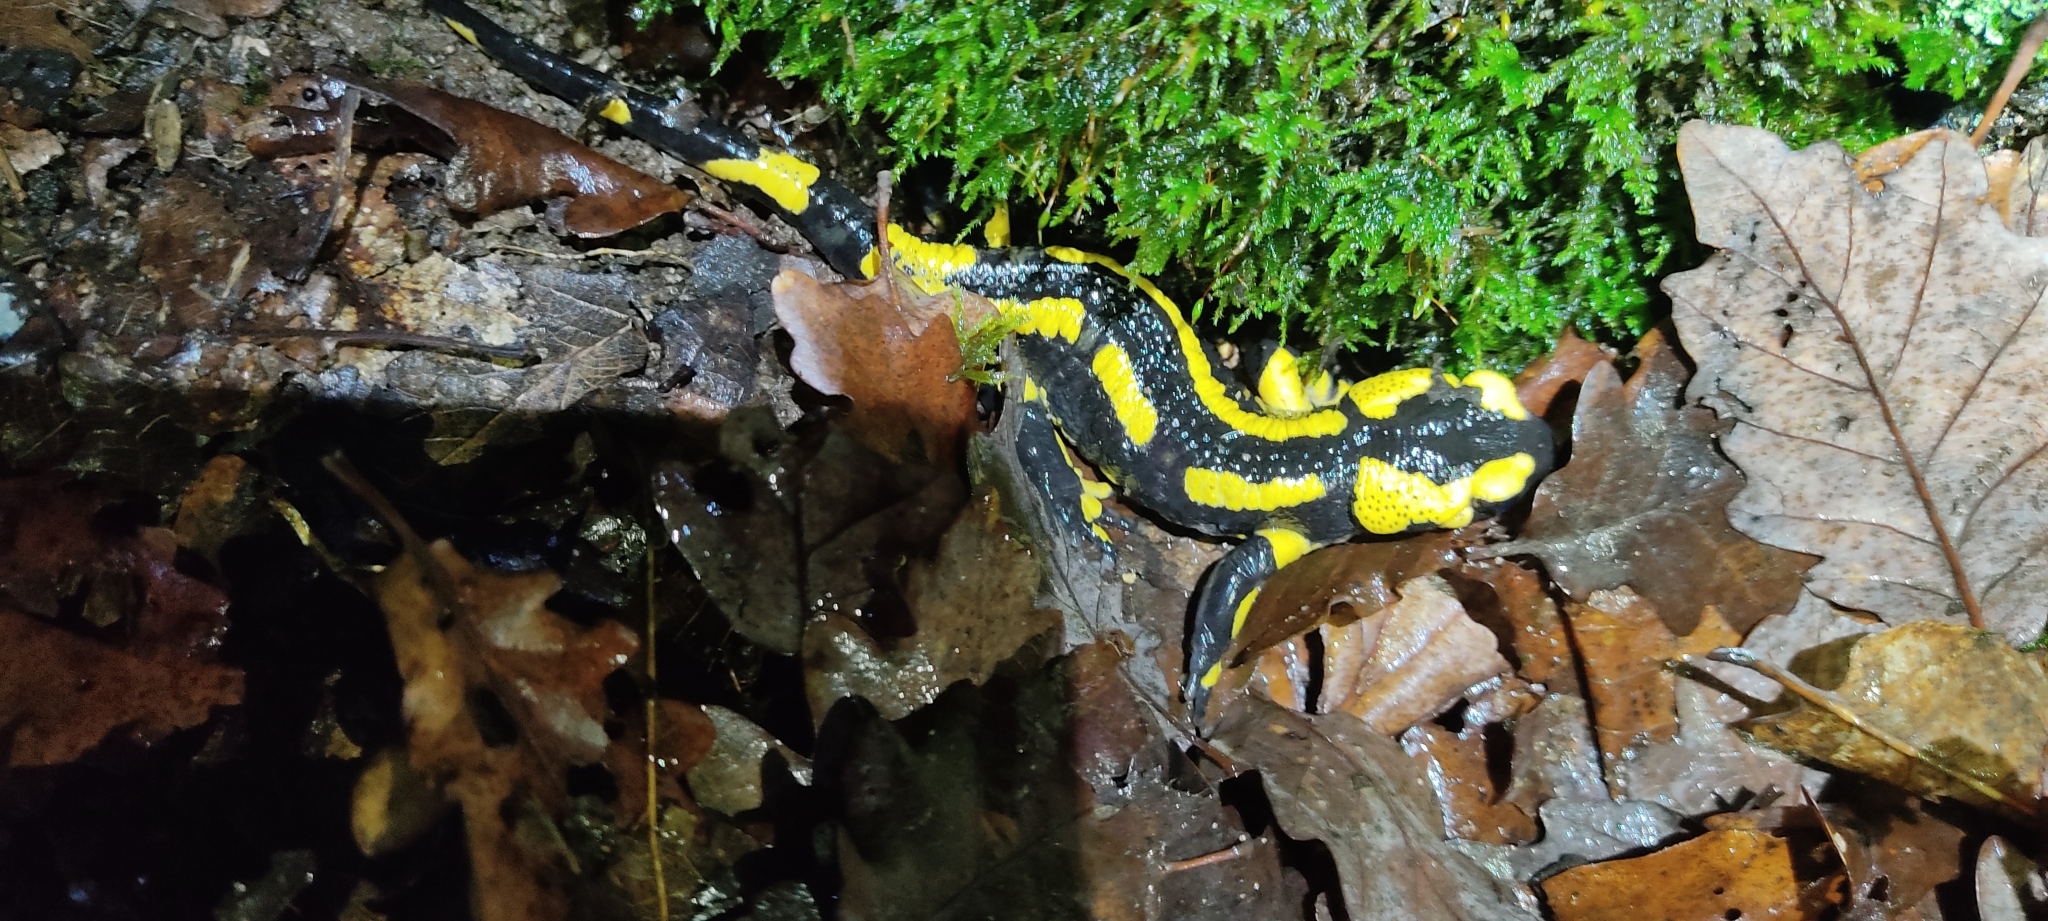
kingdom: Animalia
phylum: Chordata
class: Amphibia
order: Caudata
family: Salamandridae
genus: Salamandra
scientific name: Salamandra salamandra
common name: Fire salamander
